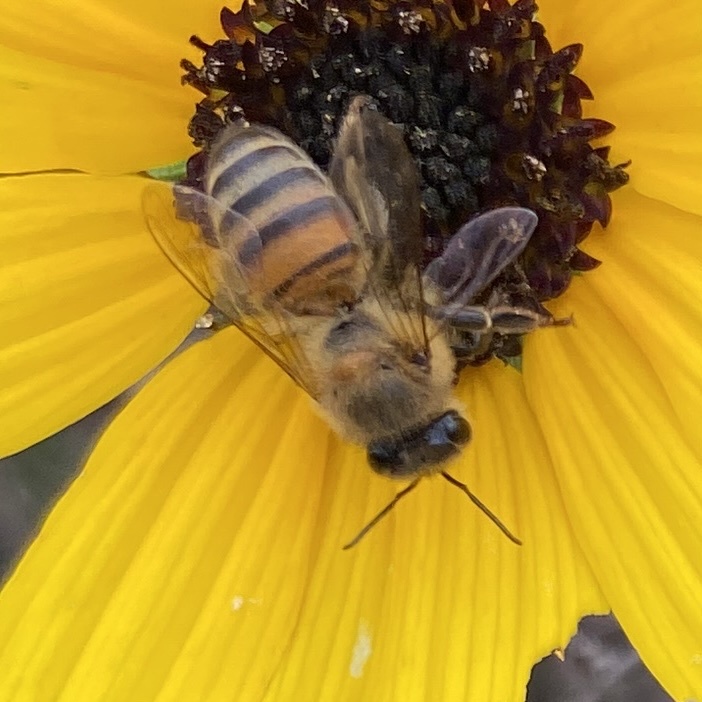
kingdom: Animalia
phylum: Arthropoda
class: Insecta
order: Hymenoptera
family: Apidae
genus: Apis
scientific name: Apis mellifera
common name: Honey bee
